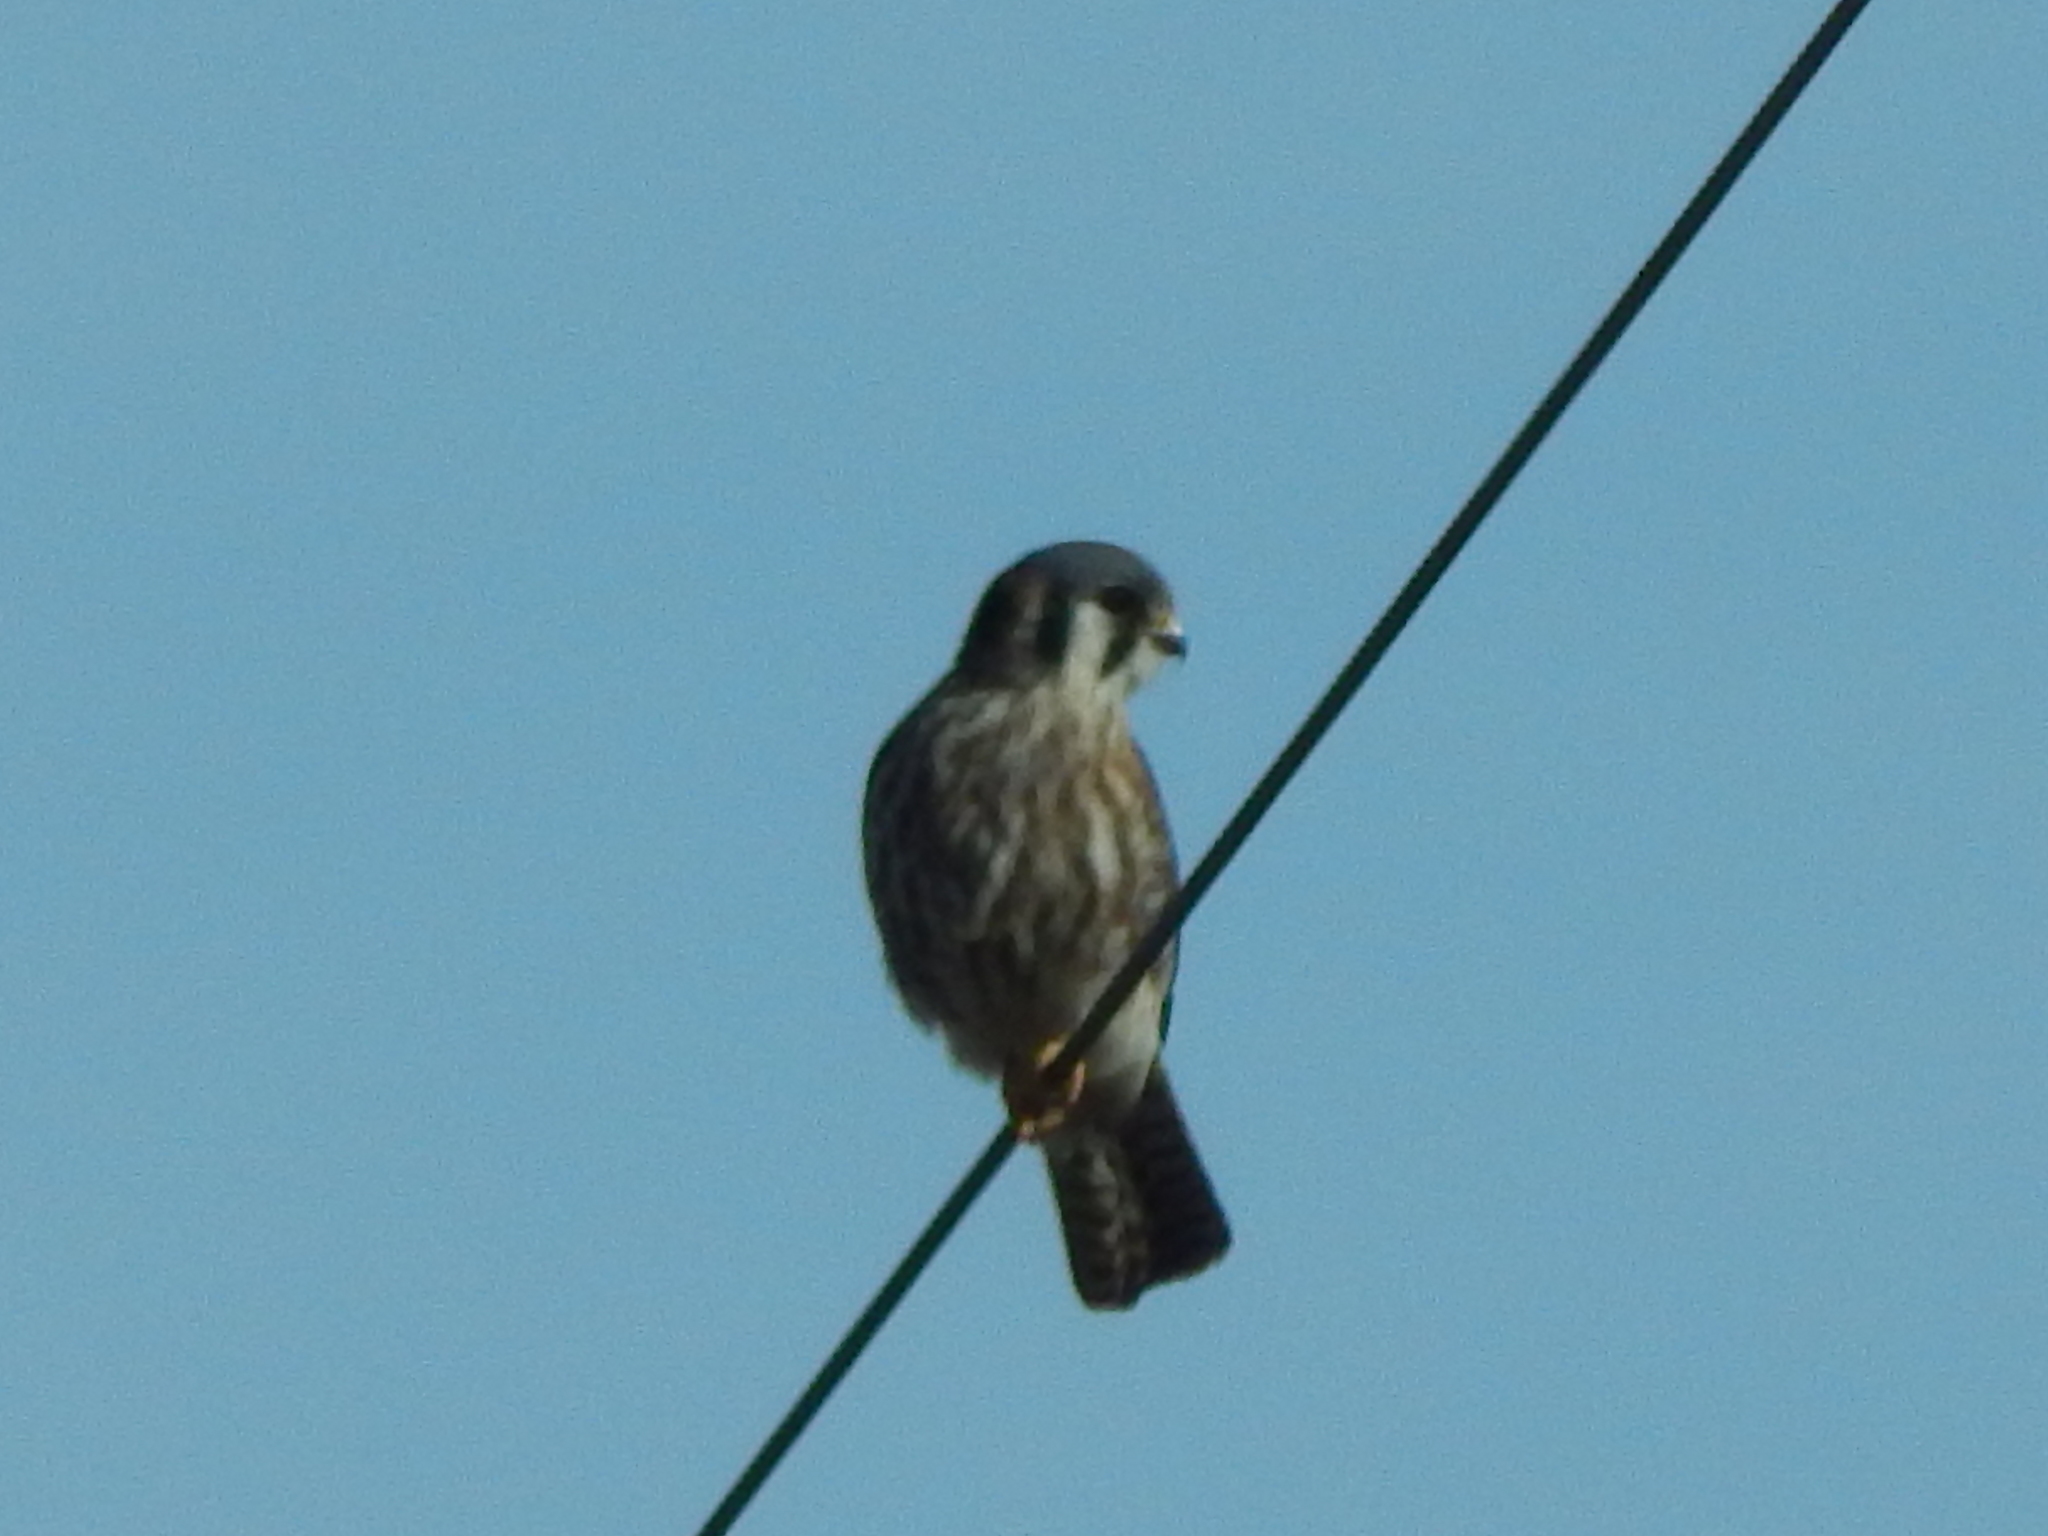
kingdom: Animalia
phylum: Chordata
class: Aves
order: Falconiformes
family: Falconidae
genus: Falco
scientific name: Falco sparverius
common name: American kestrel
